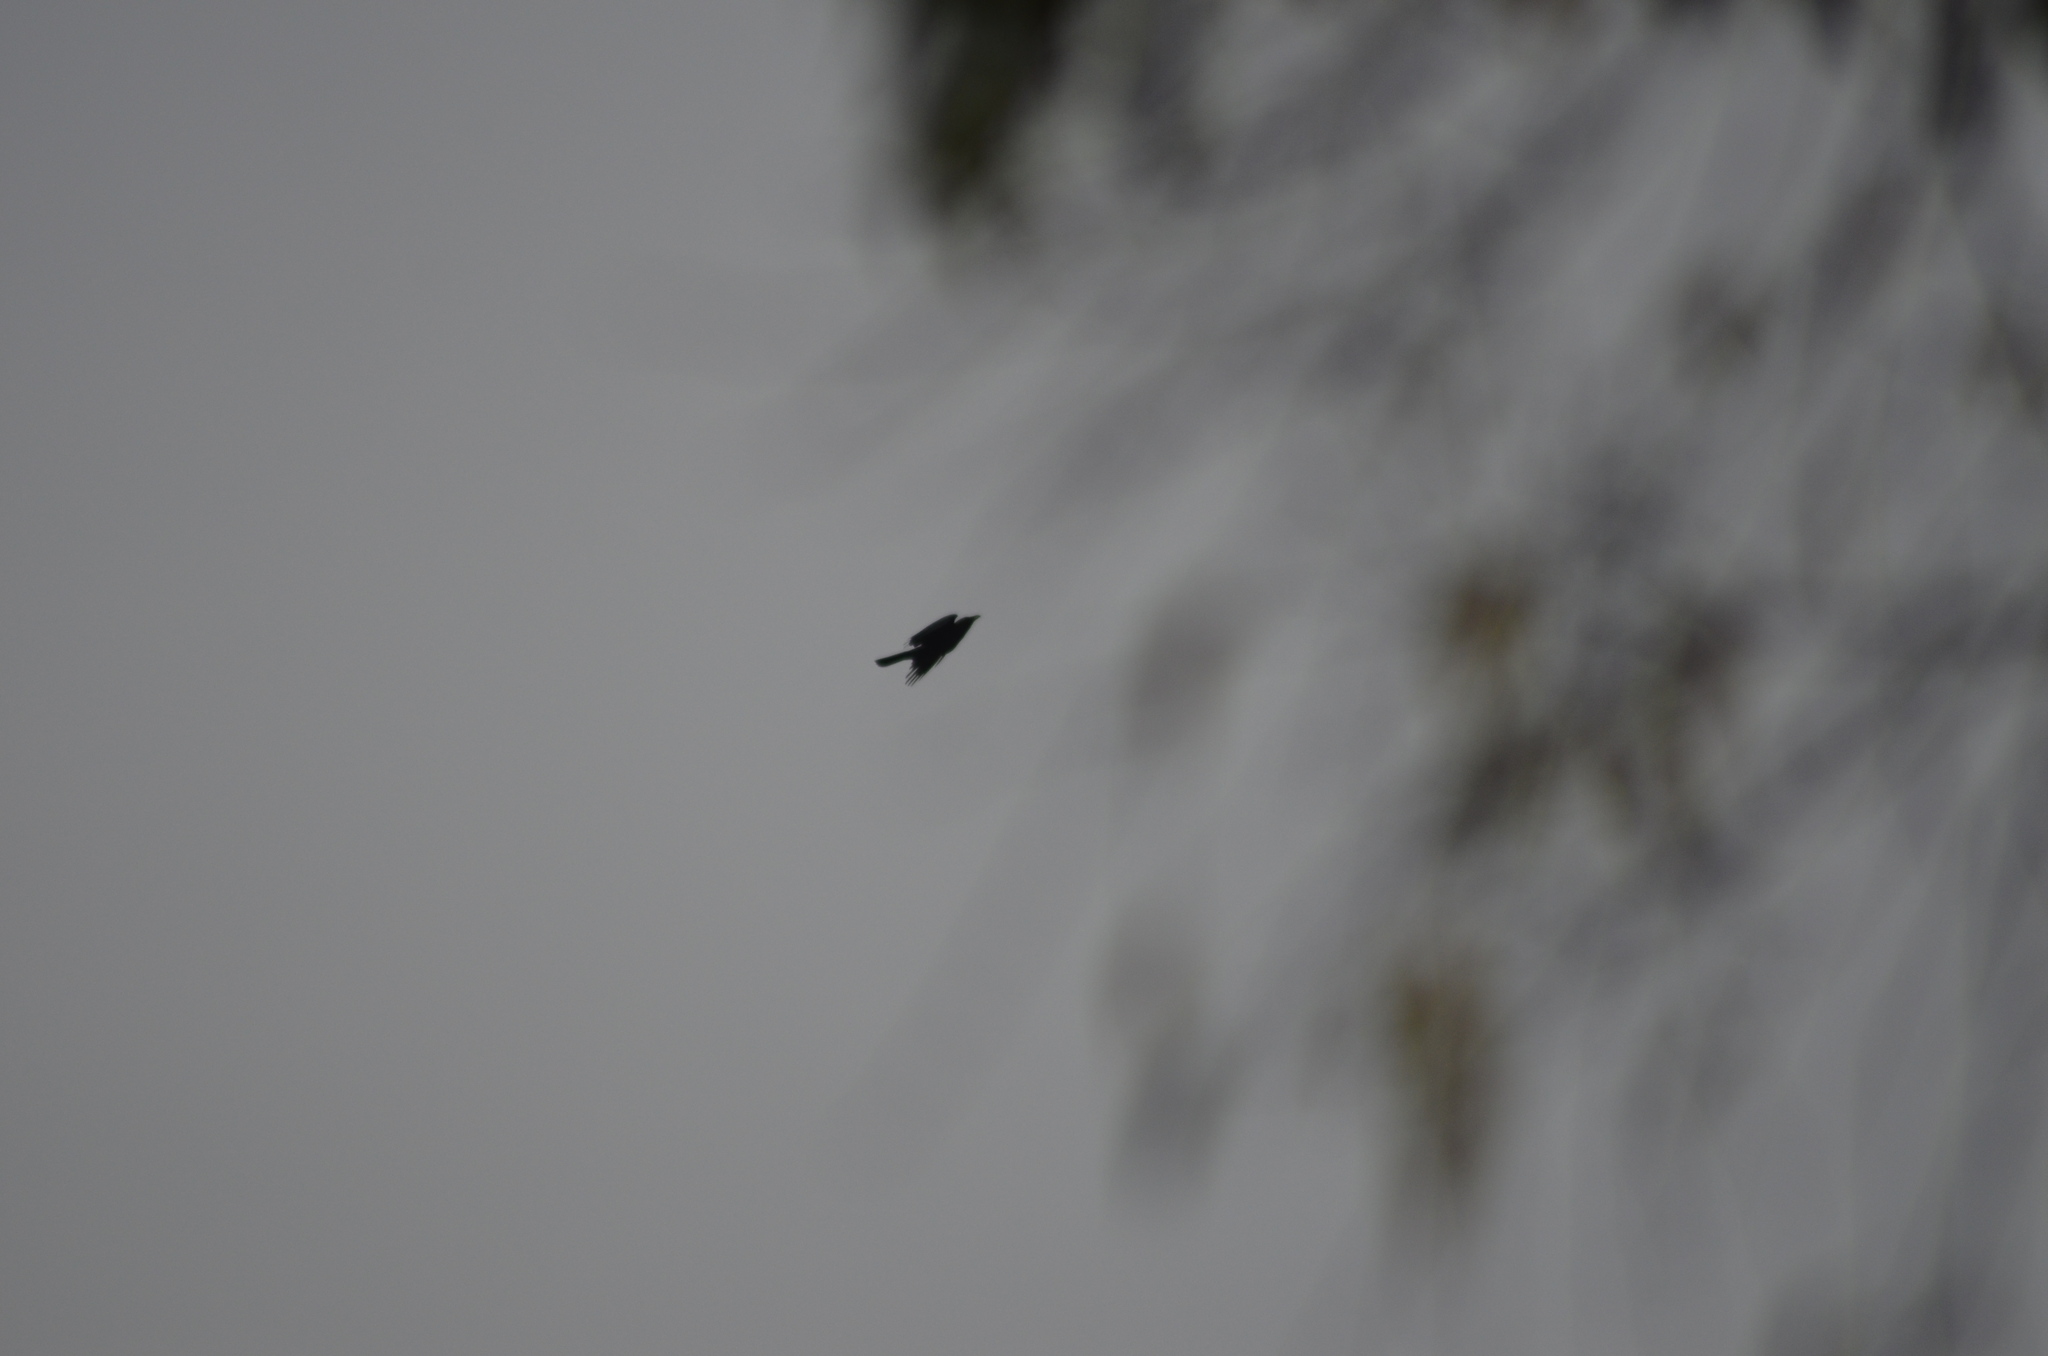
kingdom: Animalia
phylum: Chordata
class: Aves
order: Passeriformes
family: Corvidae
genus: Corvus
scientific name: Corvus corone
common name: Carrion crow
